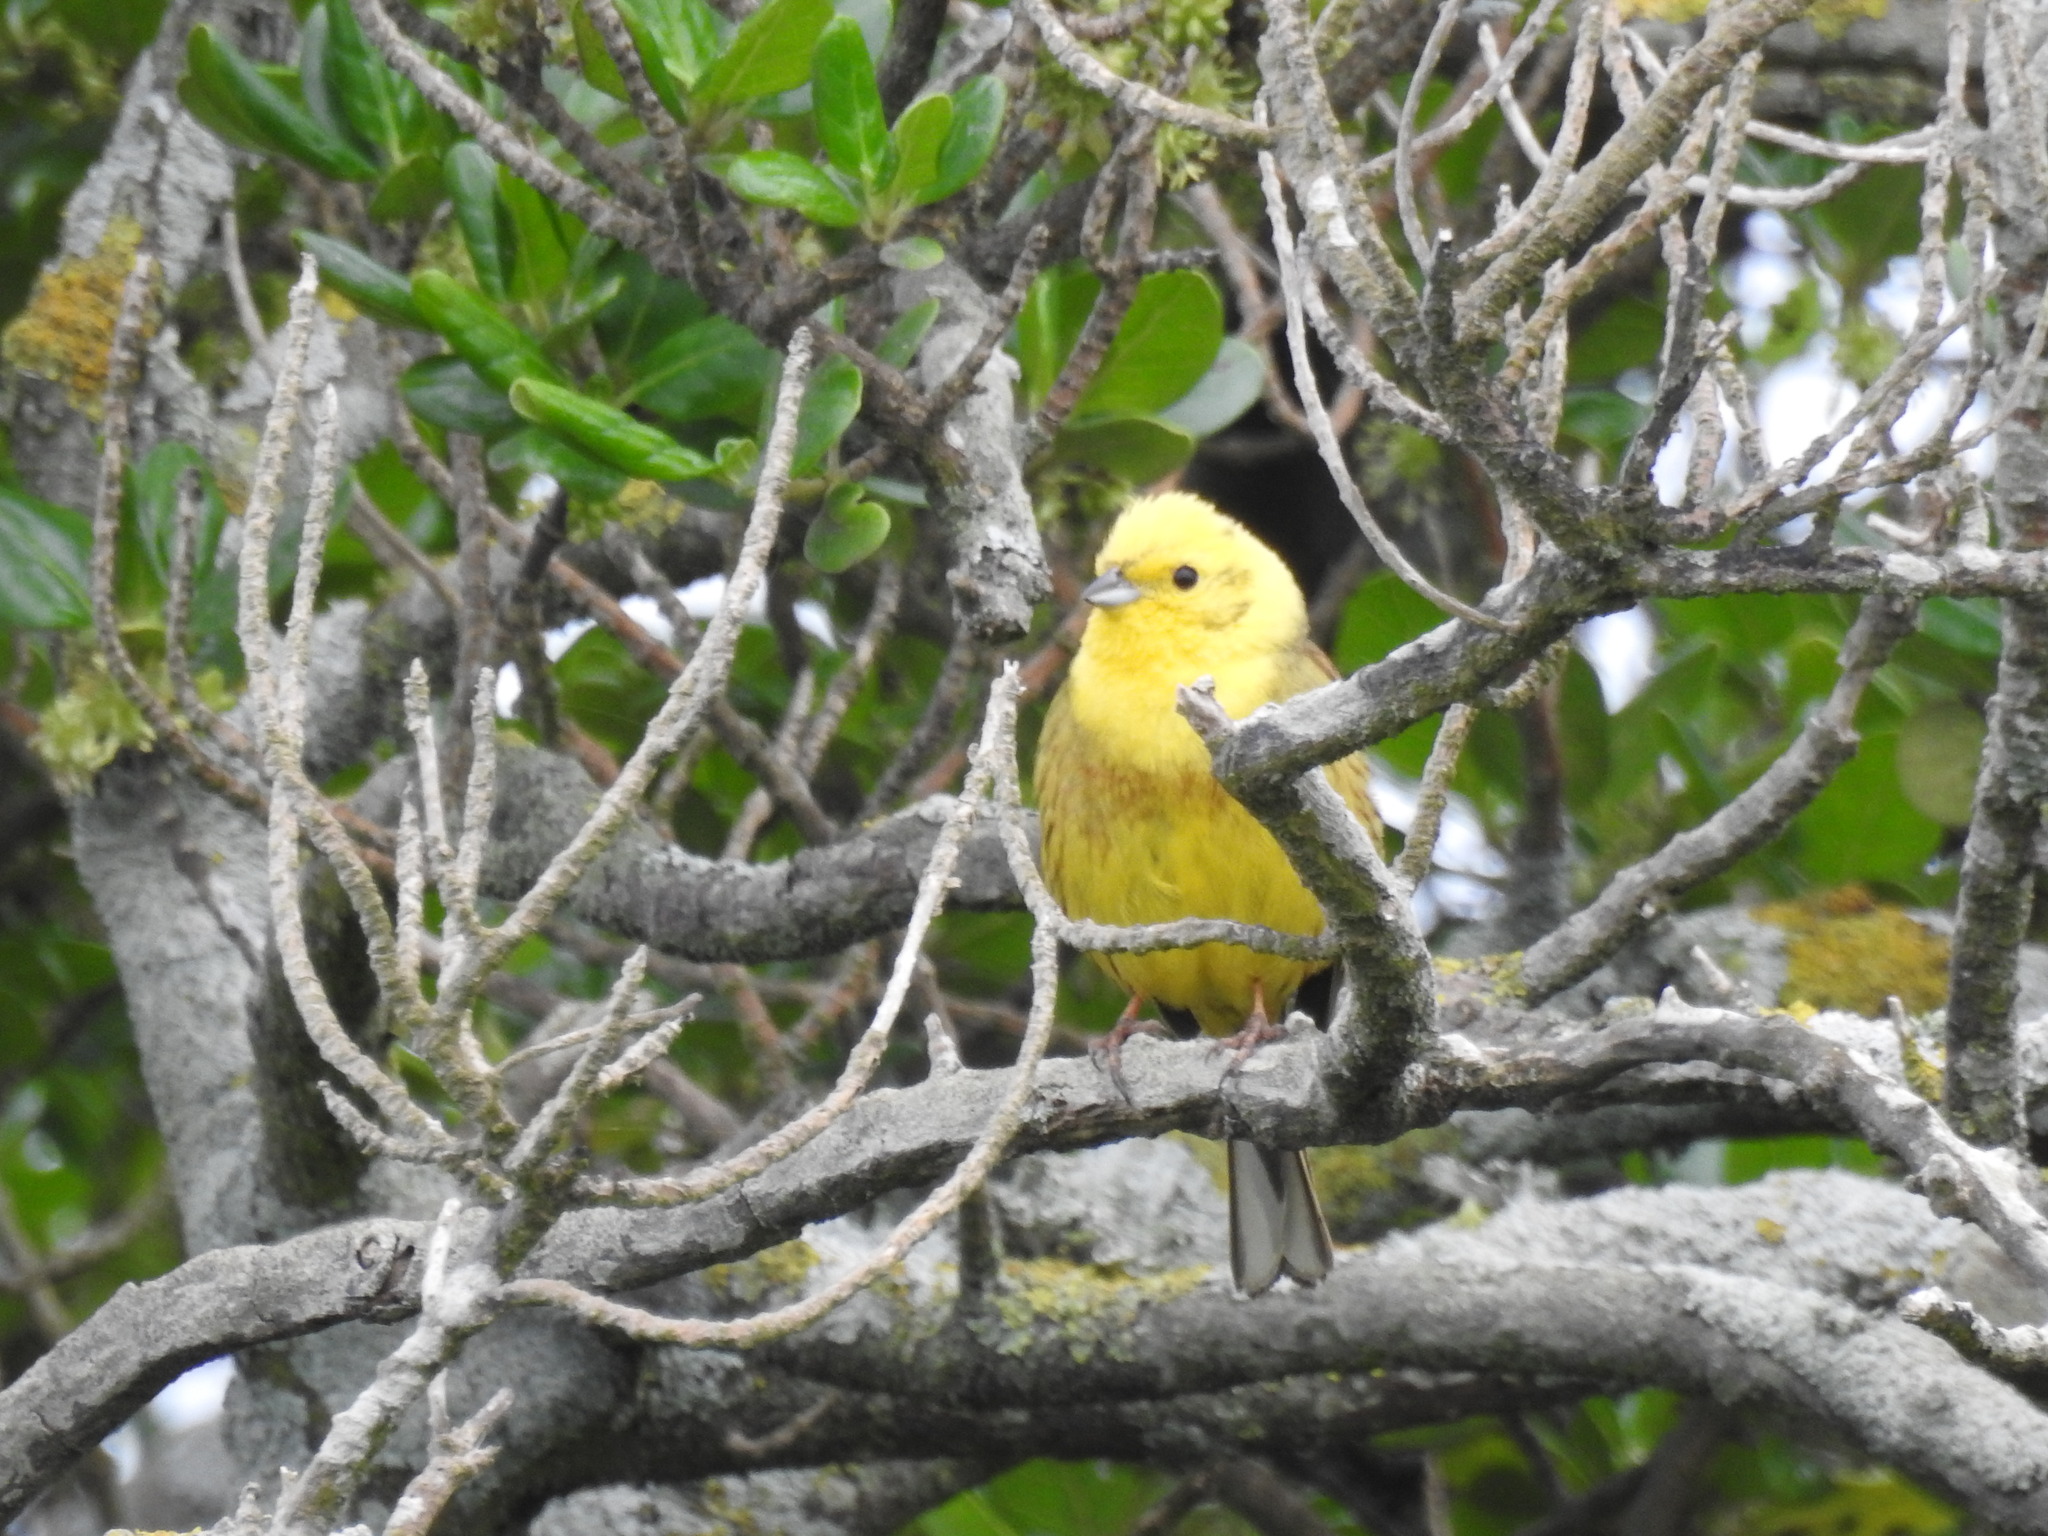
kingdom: Animalia
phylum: Chordata
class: Aves
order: Passeriformes
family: Emberizidae
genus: Emberiza
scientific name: Emberiza citrinella
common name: Yellowhammer
